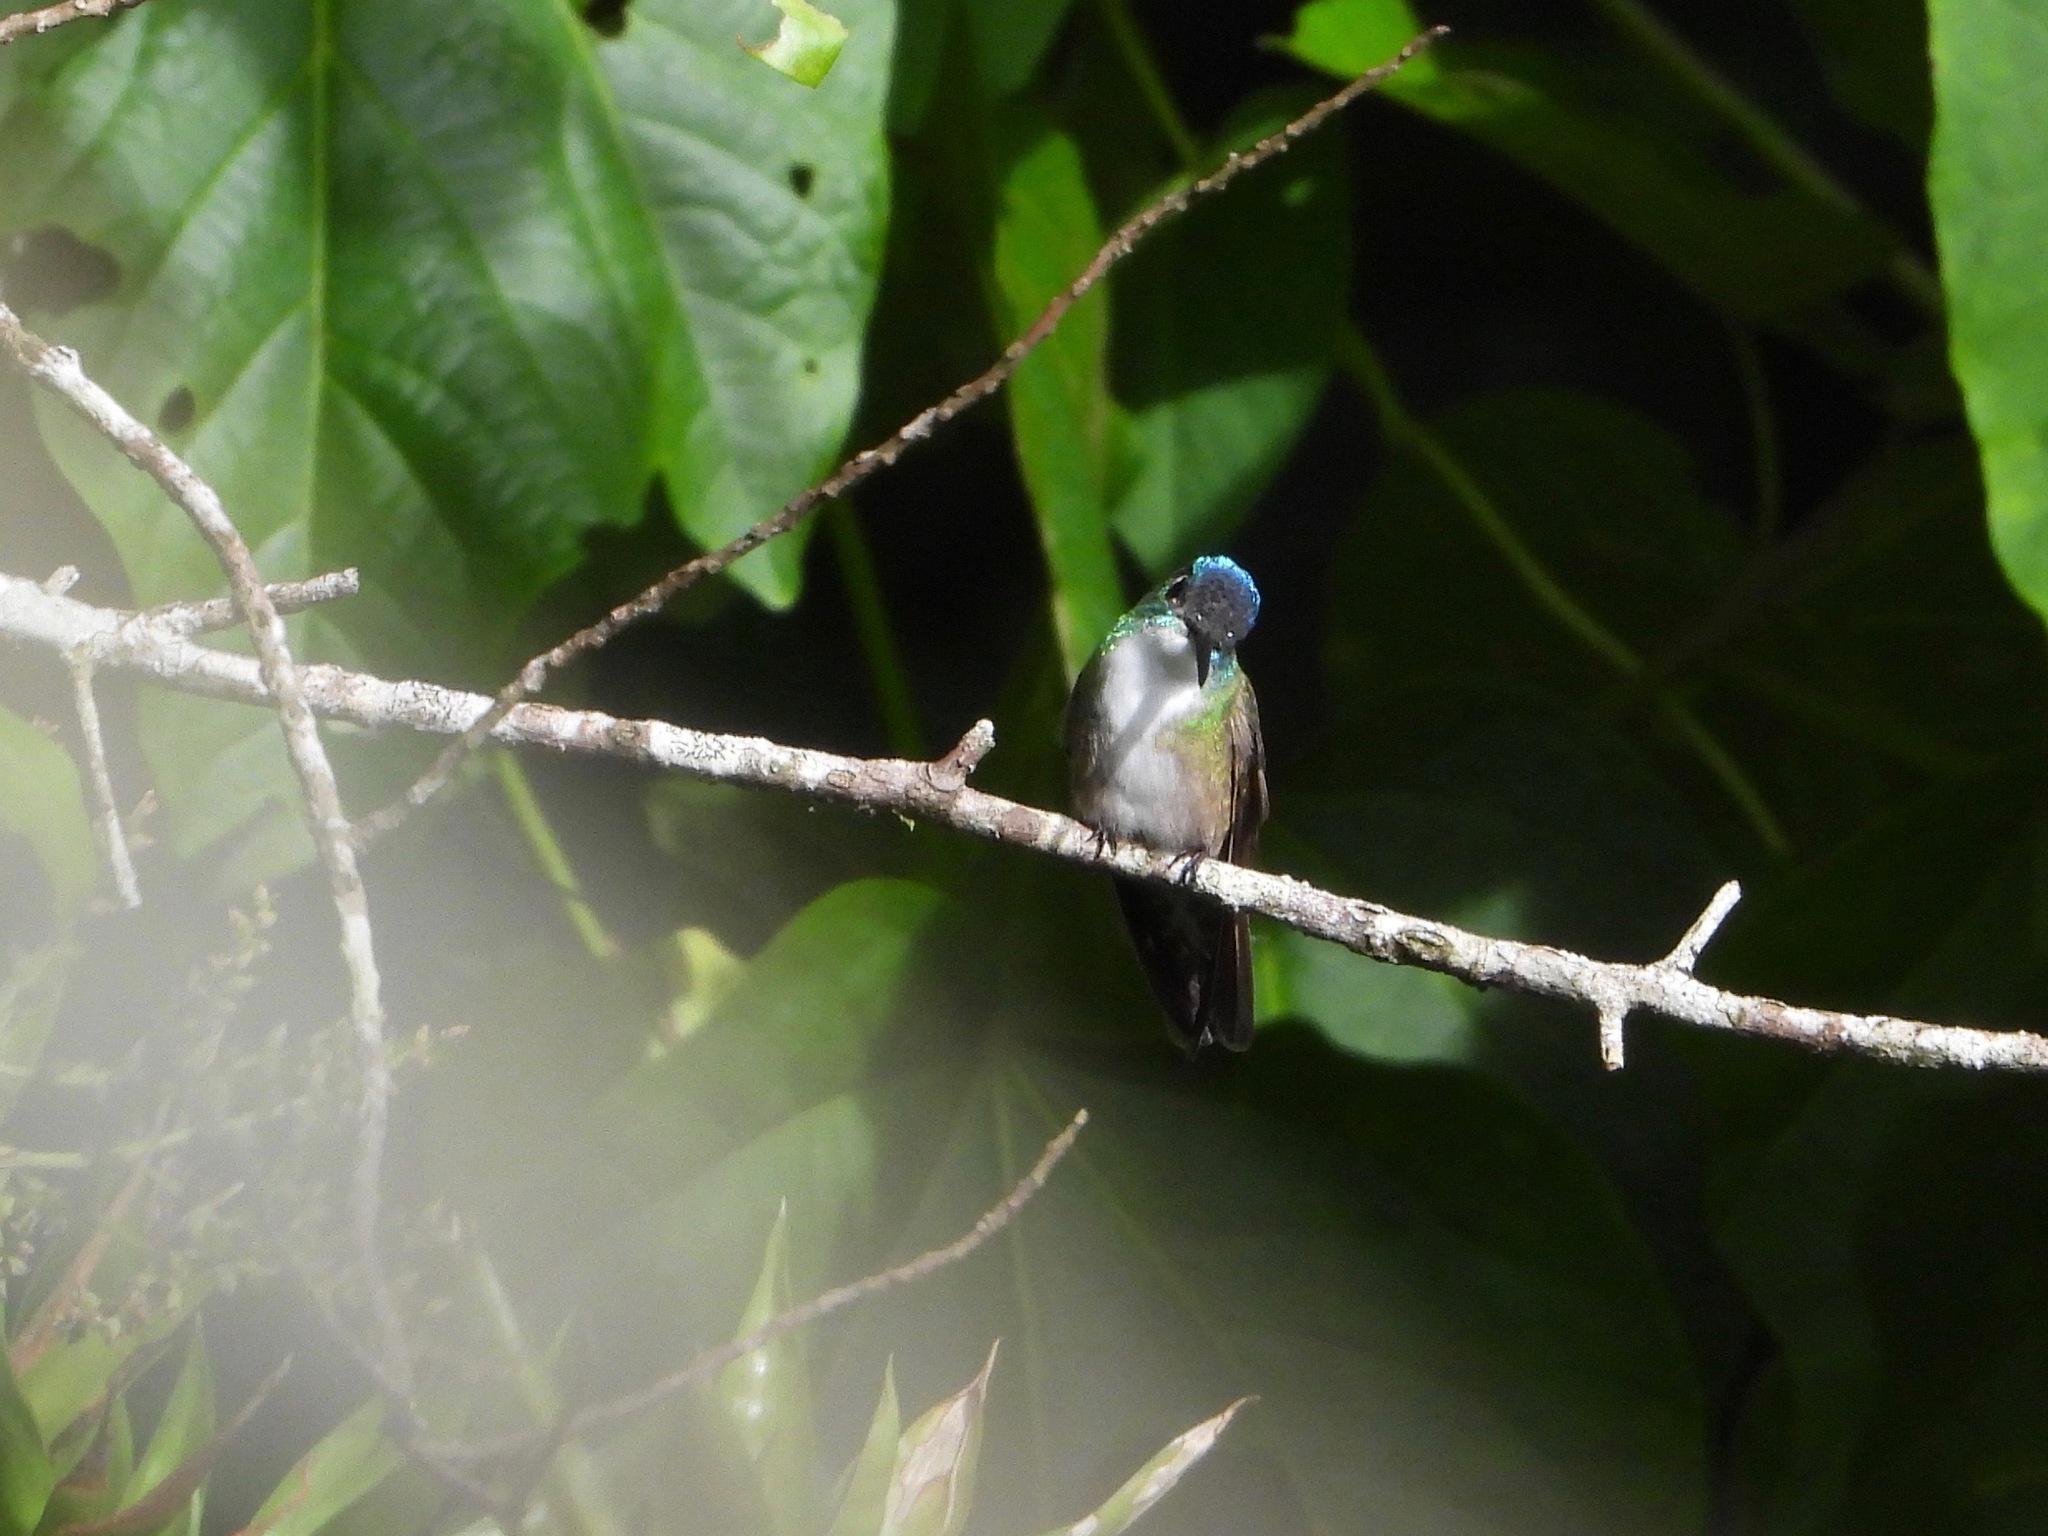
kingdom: Animalia
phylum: Chordata
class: Aves
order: Apodiformes
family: Trochilidae
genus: Saucerottia
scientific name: Saucerottia cyanocephala
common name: Azure-crowned hummingbird
